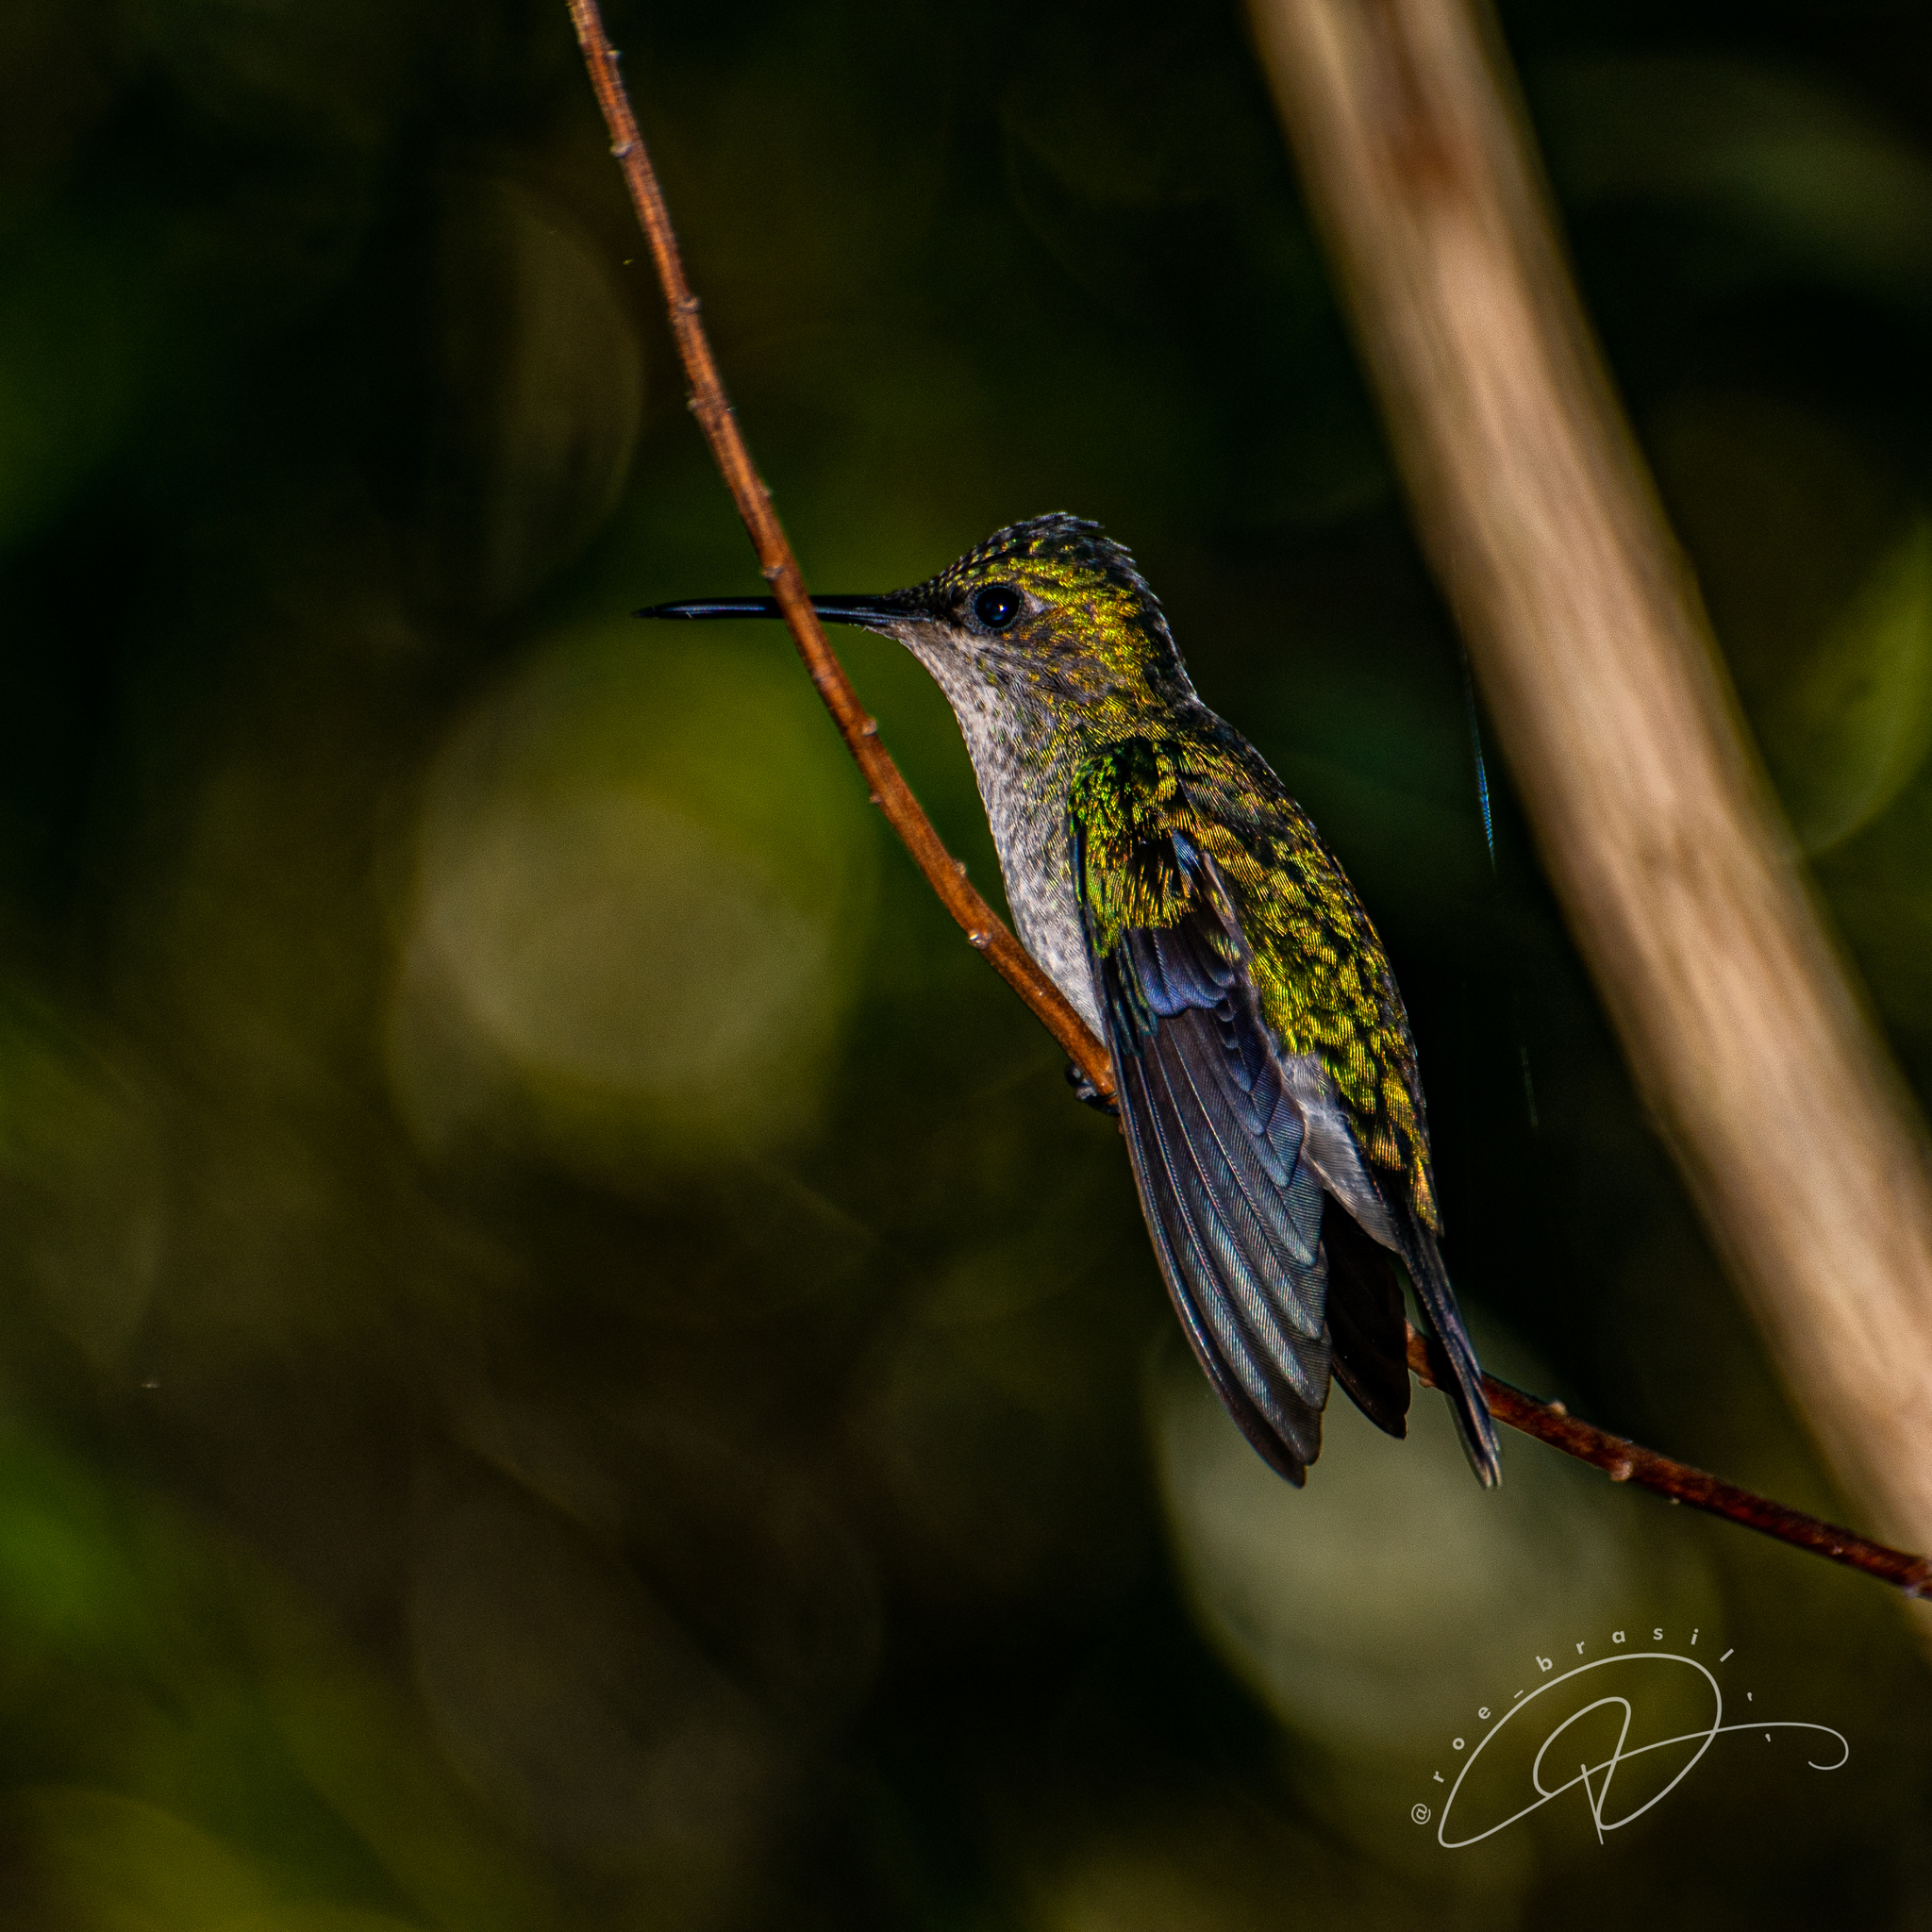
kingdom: Animalia
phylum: Chordata
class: Aves
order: Apodiformes
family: Trochilidae
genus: Thalurania
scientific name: Thalurania glaucopis
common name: Violet-capped woodnymph
